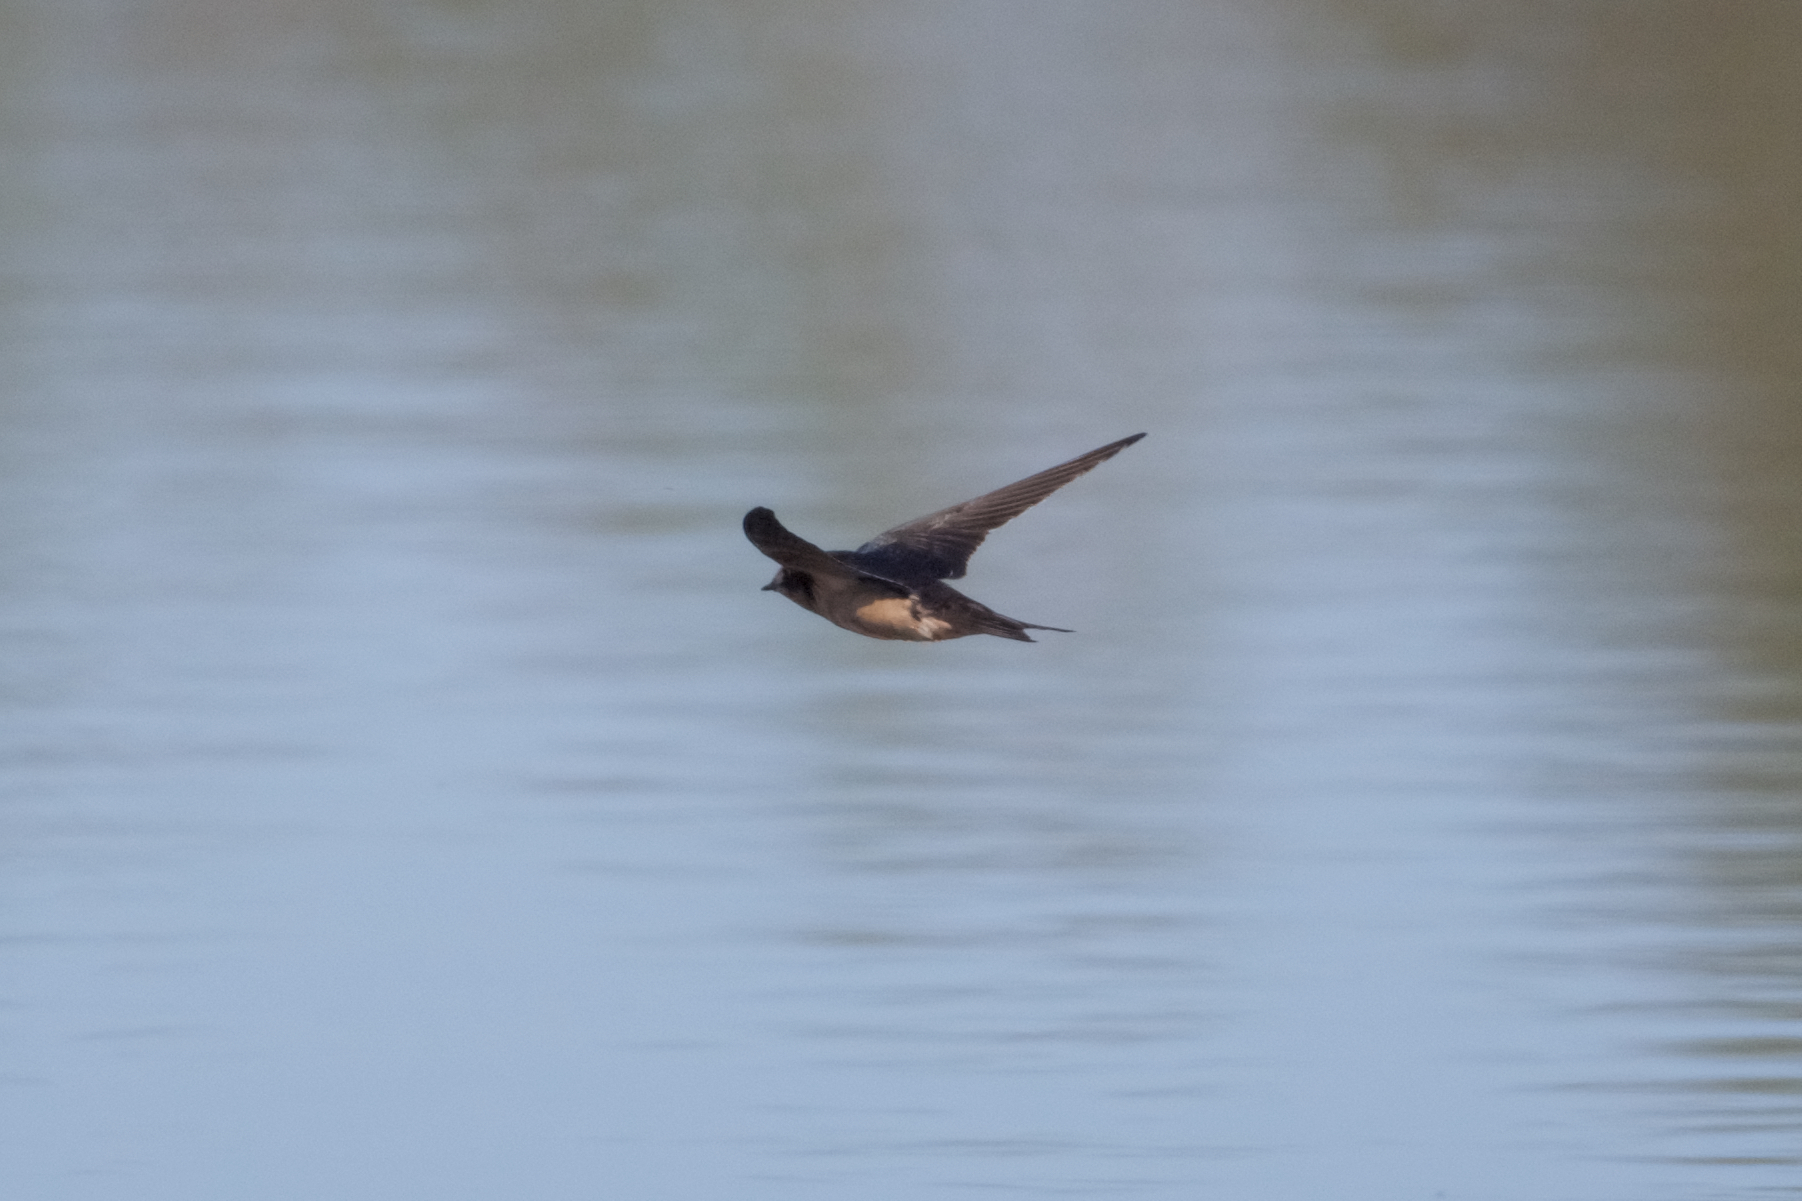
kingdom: Animalia
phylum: Chordata
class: Aves
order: Passeriformes
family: Hirundinidae
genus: Hirundo
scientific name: Hirundo rustica
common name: Barn swallow
